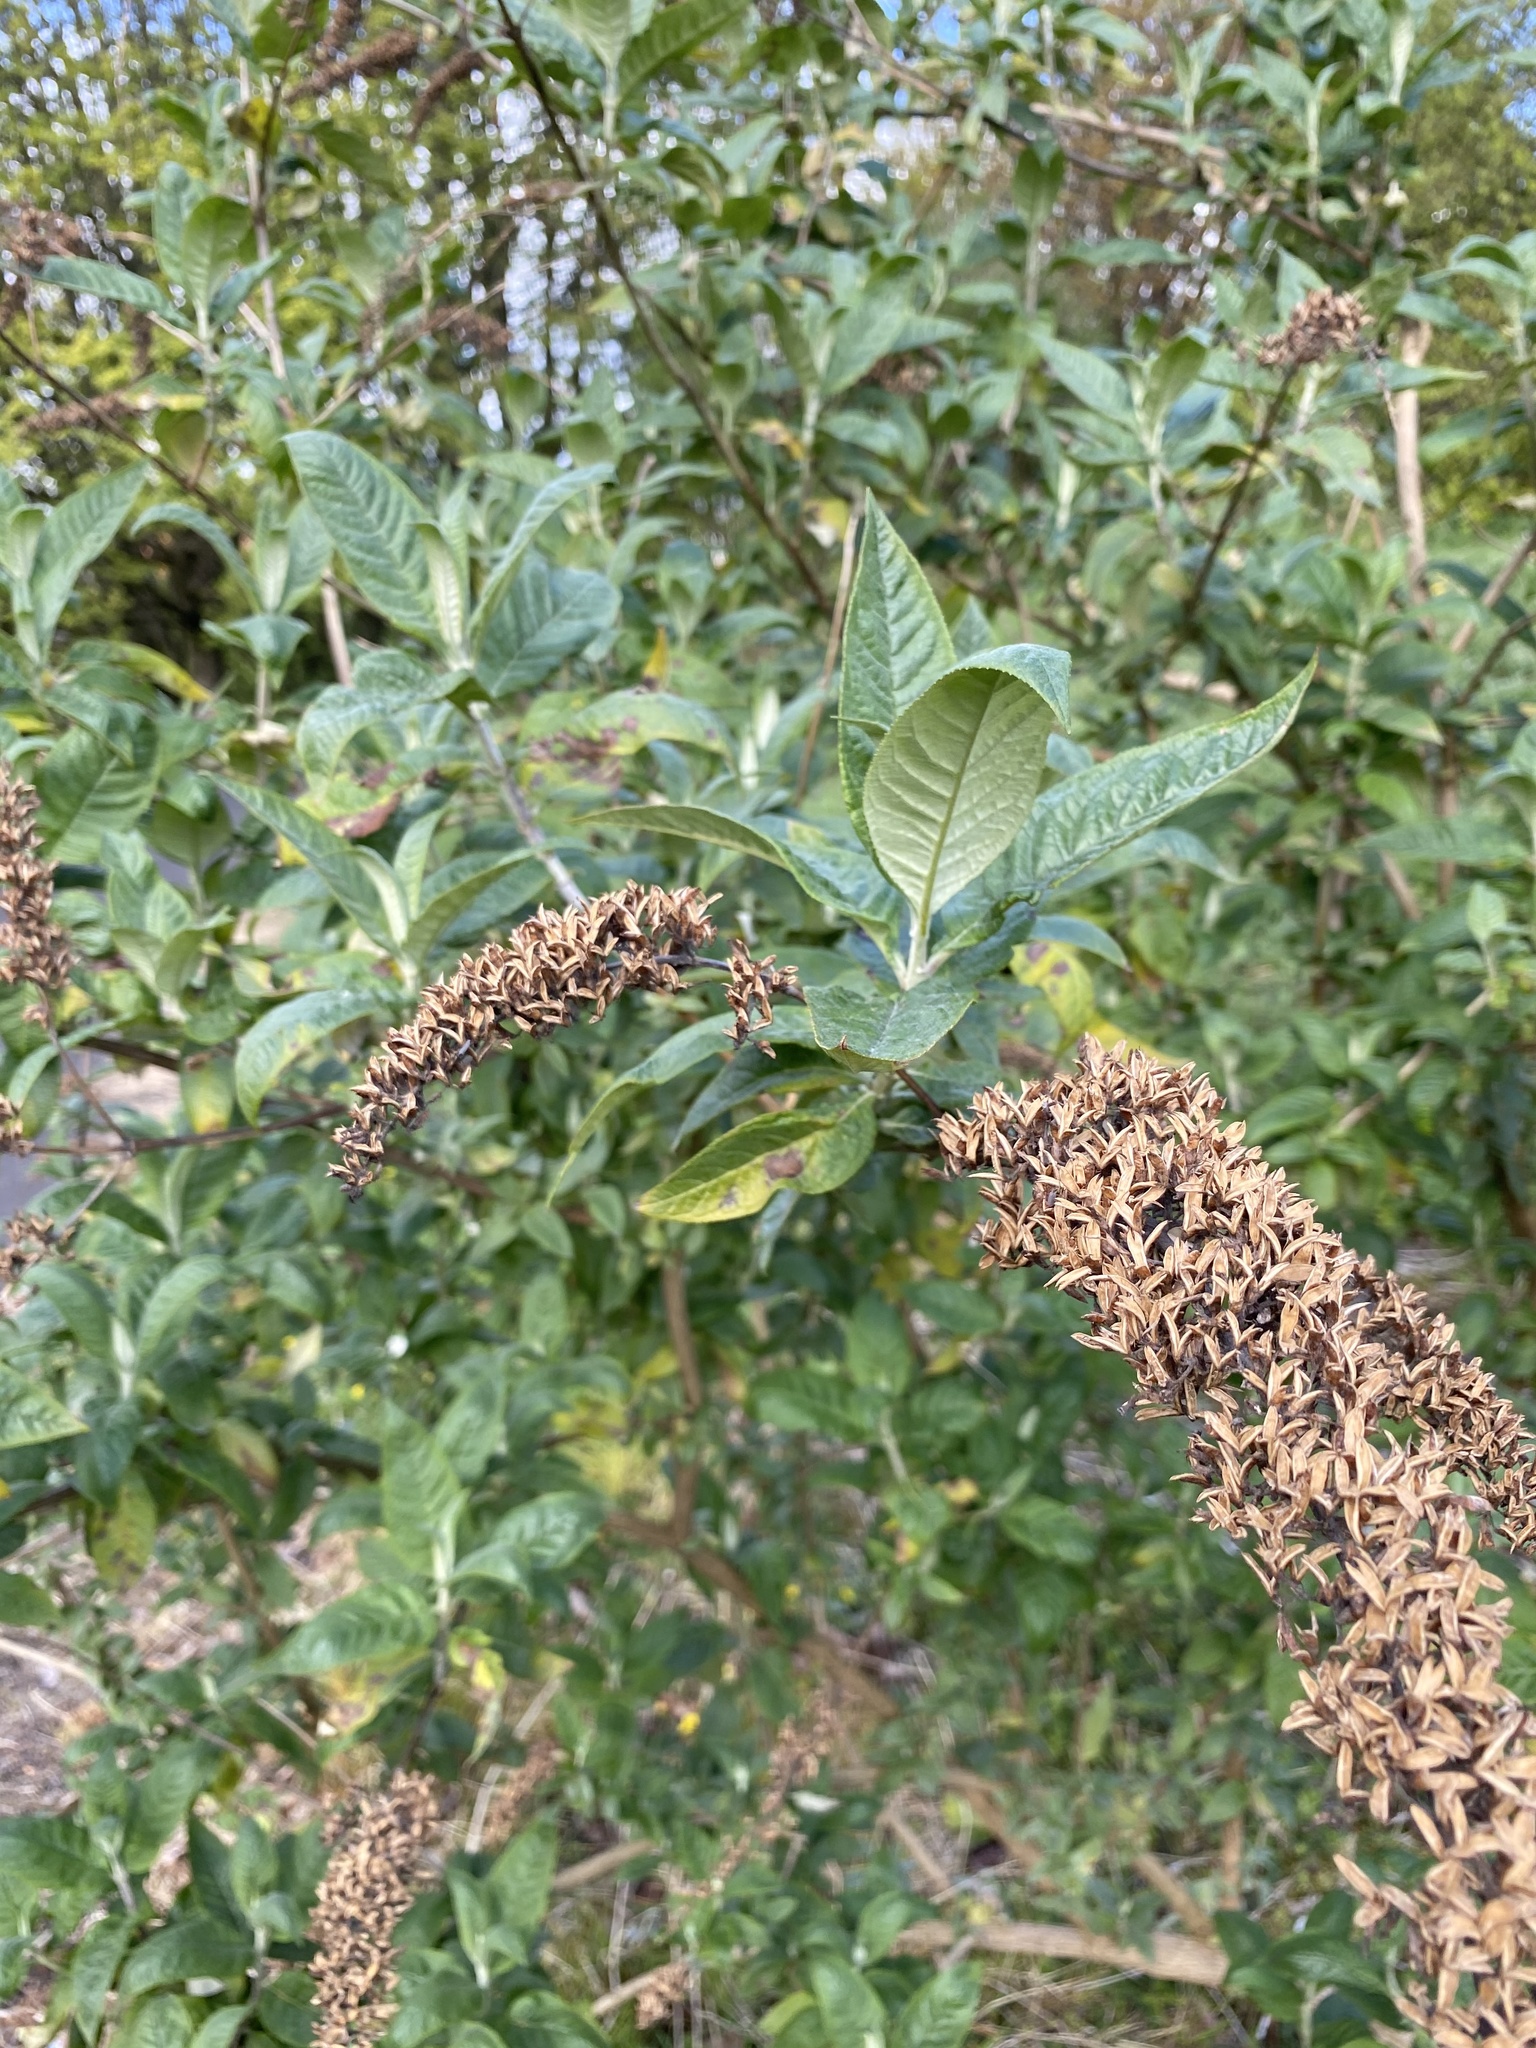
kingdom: Plantae
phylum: Tracheophyta
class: Magnoliopsida
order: Lamiales
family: Scrophulariaceae
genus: Buddleja
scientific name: Buddleja davidii
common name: Butterfly-bush
